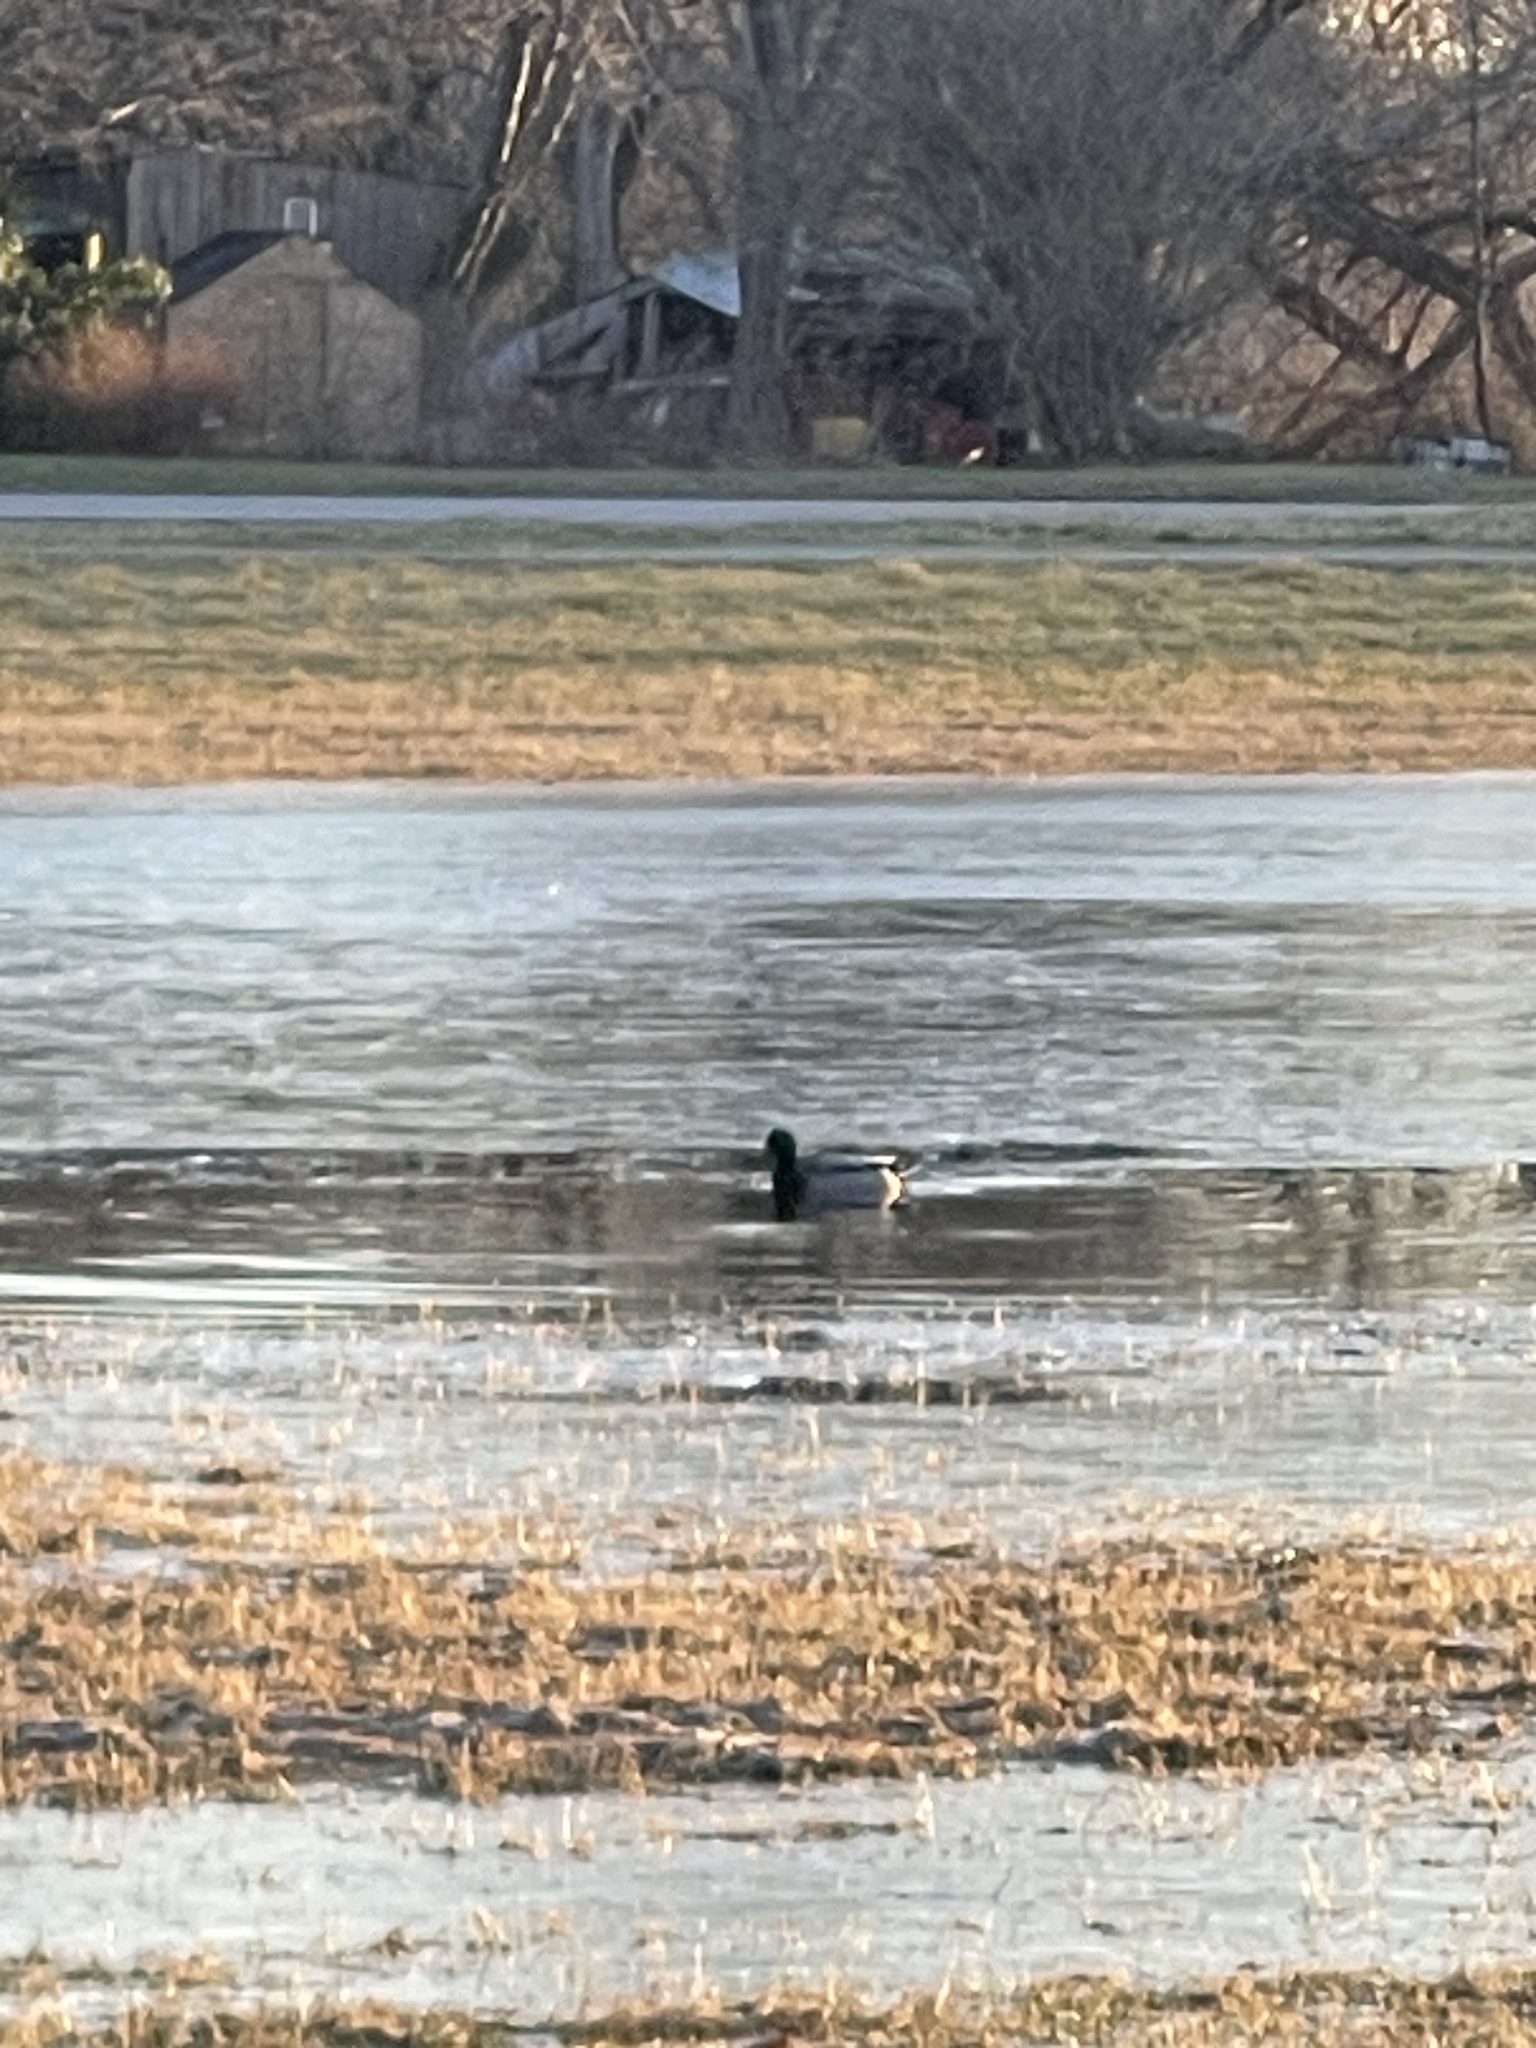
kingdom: Animalia
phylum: Chordata
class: Aves
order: Anseriformes
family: Anatidae
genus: Anas
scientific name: Anas platyrhynchos
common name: Mallard
